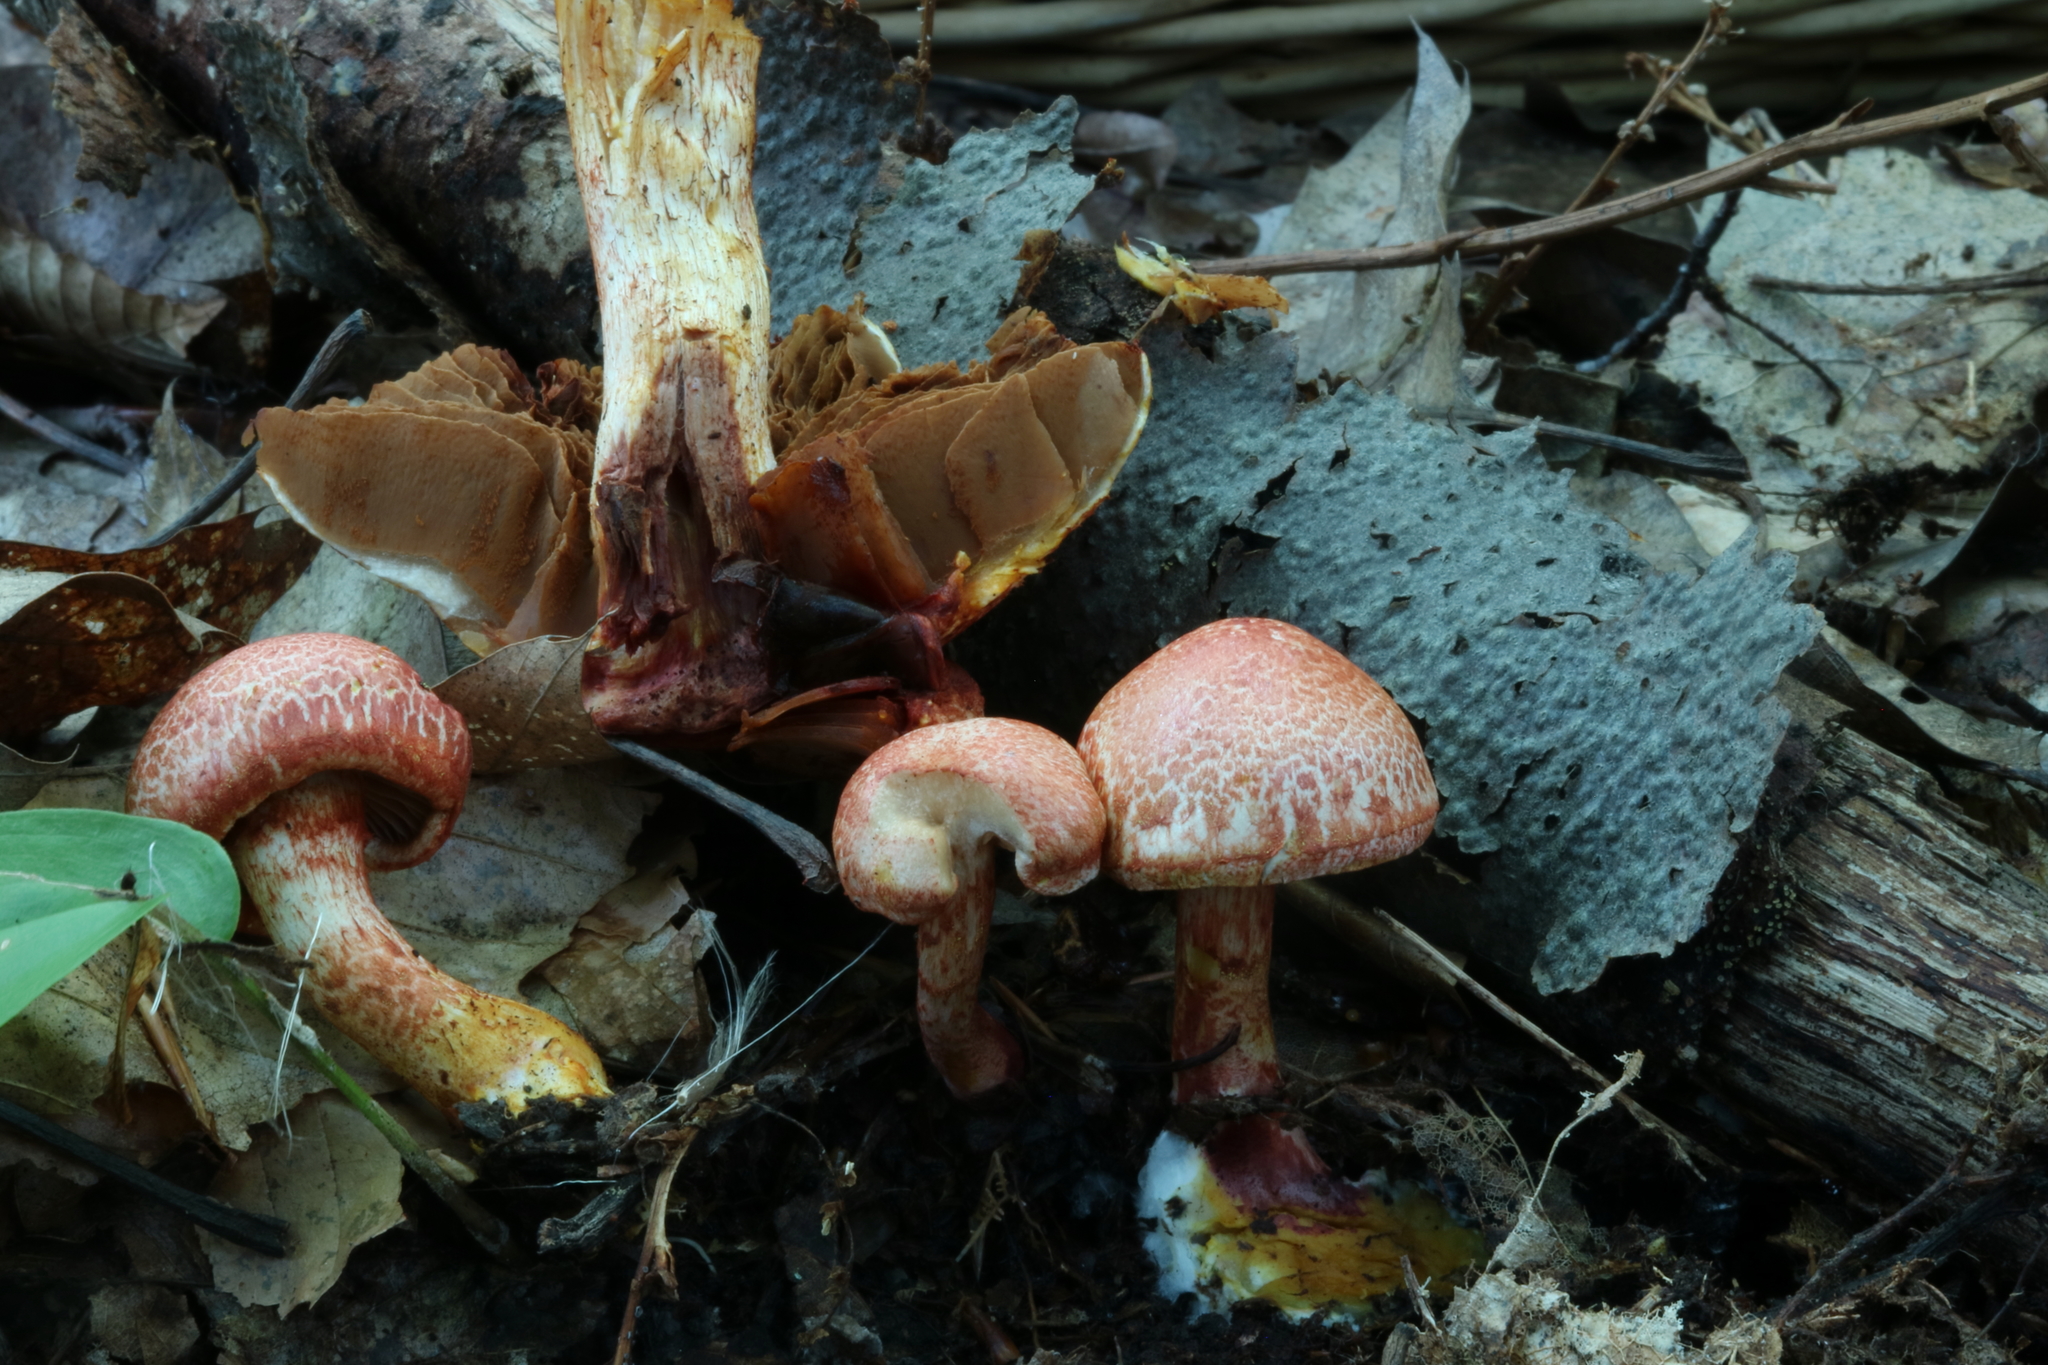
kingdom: Fungi
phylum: Basidiomycota
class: Agaricomycetes
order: Agaricales
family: Cortinariaceae
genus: Cortinarius
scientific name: Cortinarius bolaris
